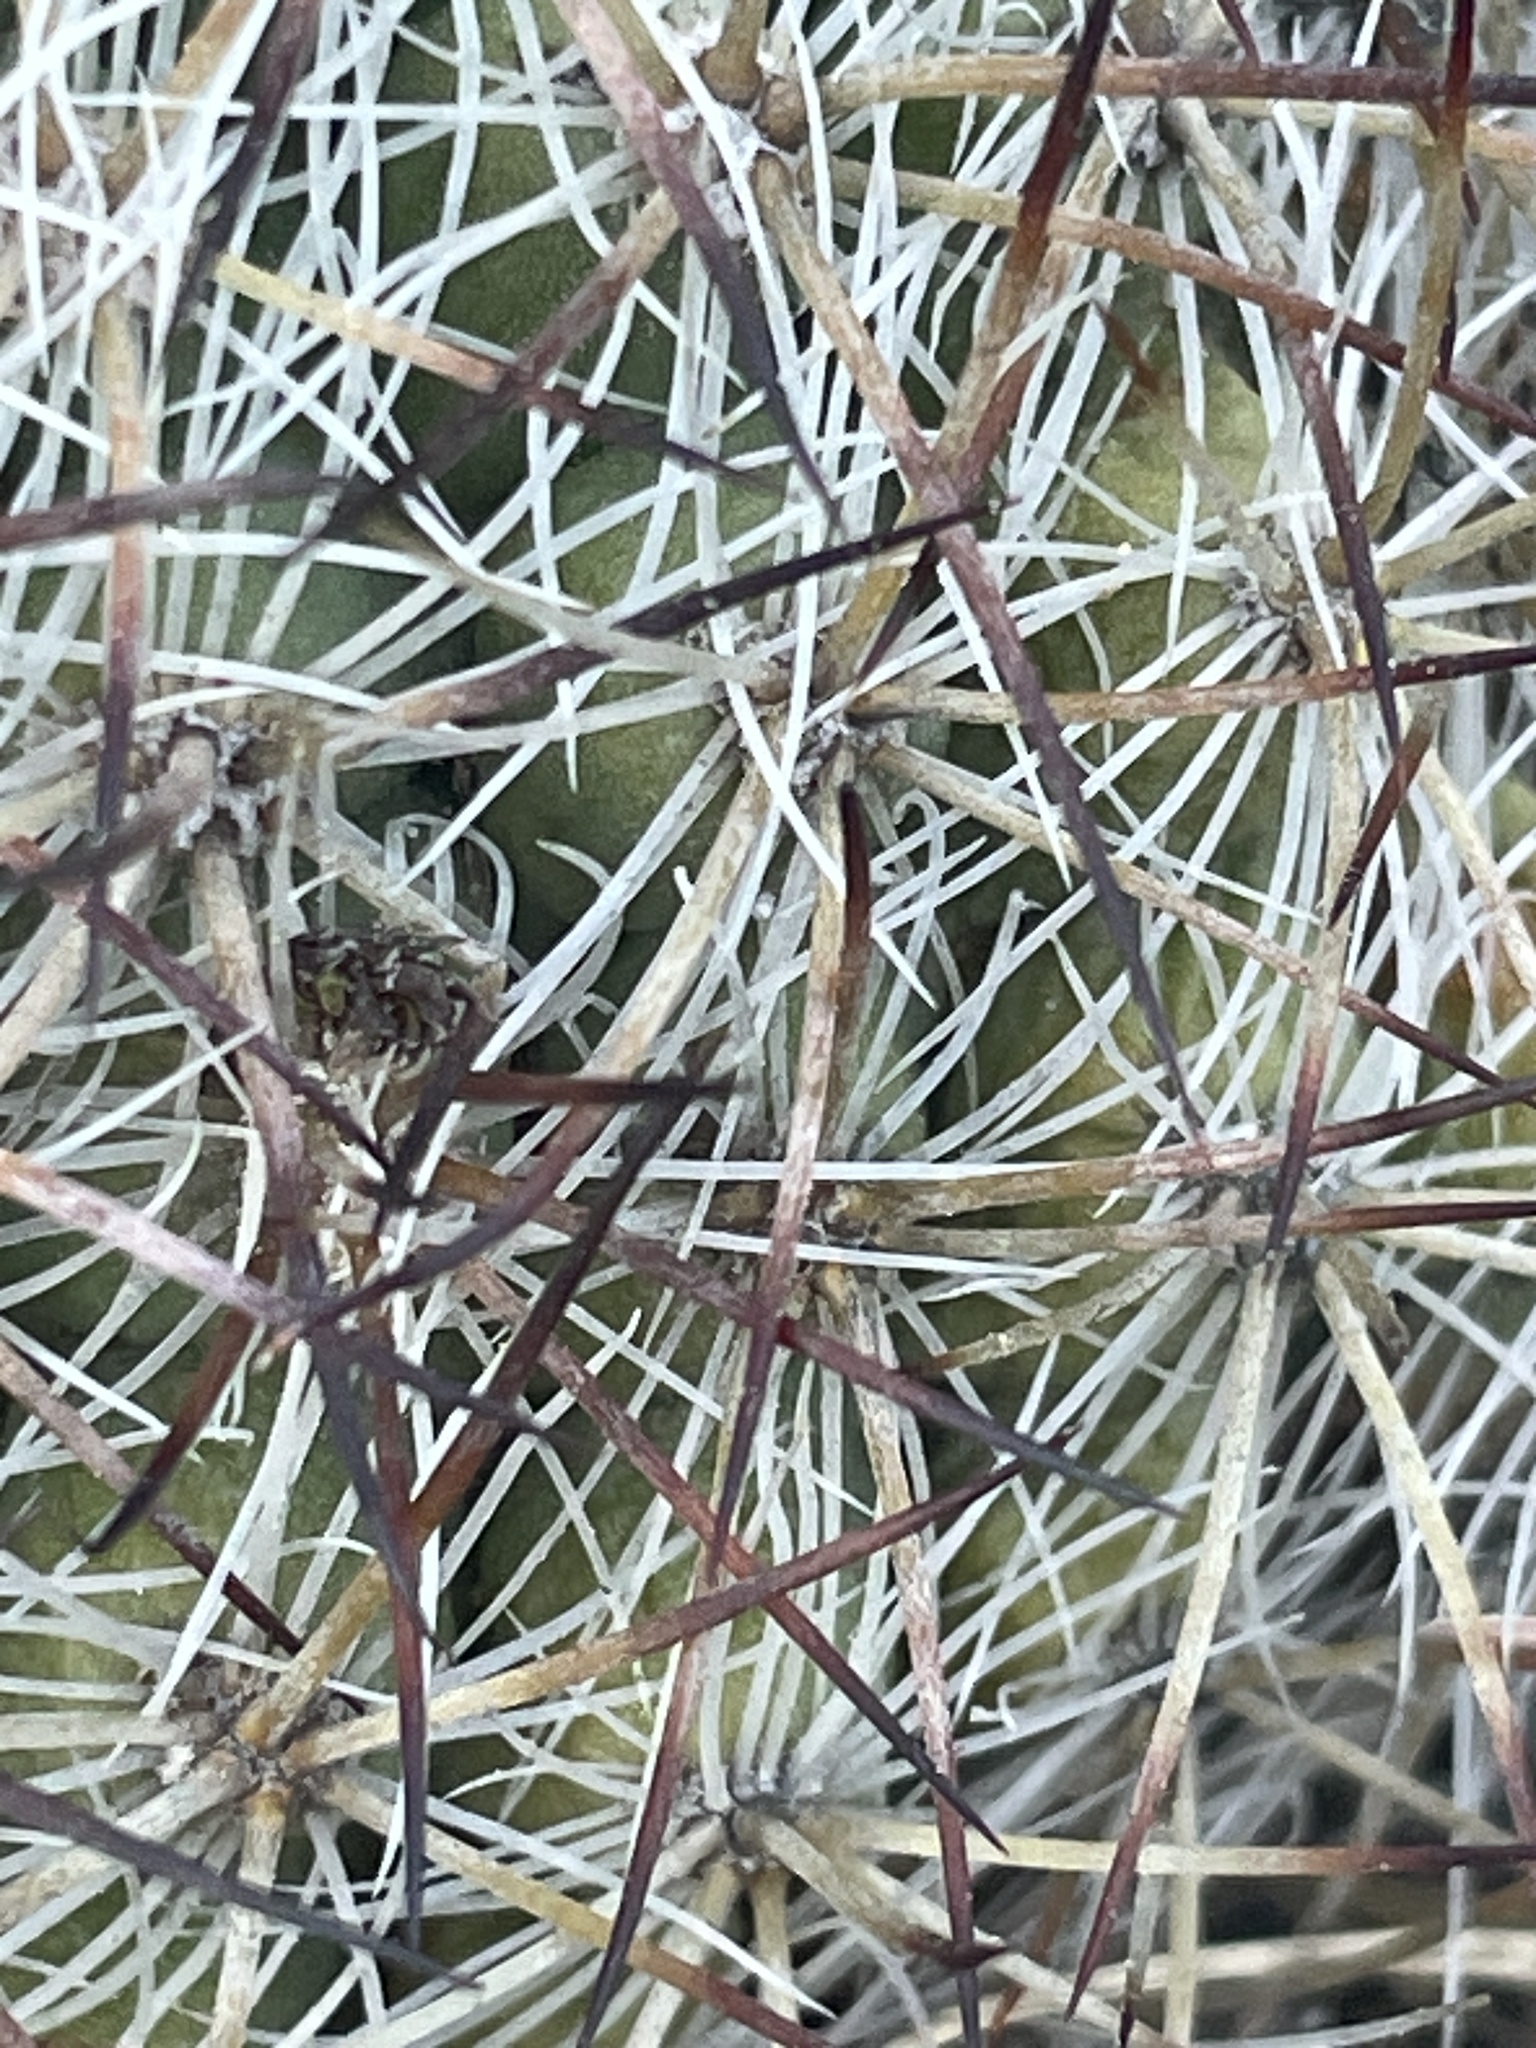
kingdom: Plantae
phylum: Tracheophyta
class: Magnoliopsida
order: Caryophyllales
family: Cactaceae
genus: Pediocactus
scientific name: Pediocactus simpsonii
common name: Simpson's hedgehog cactus
